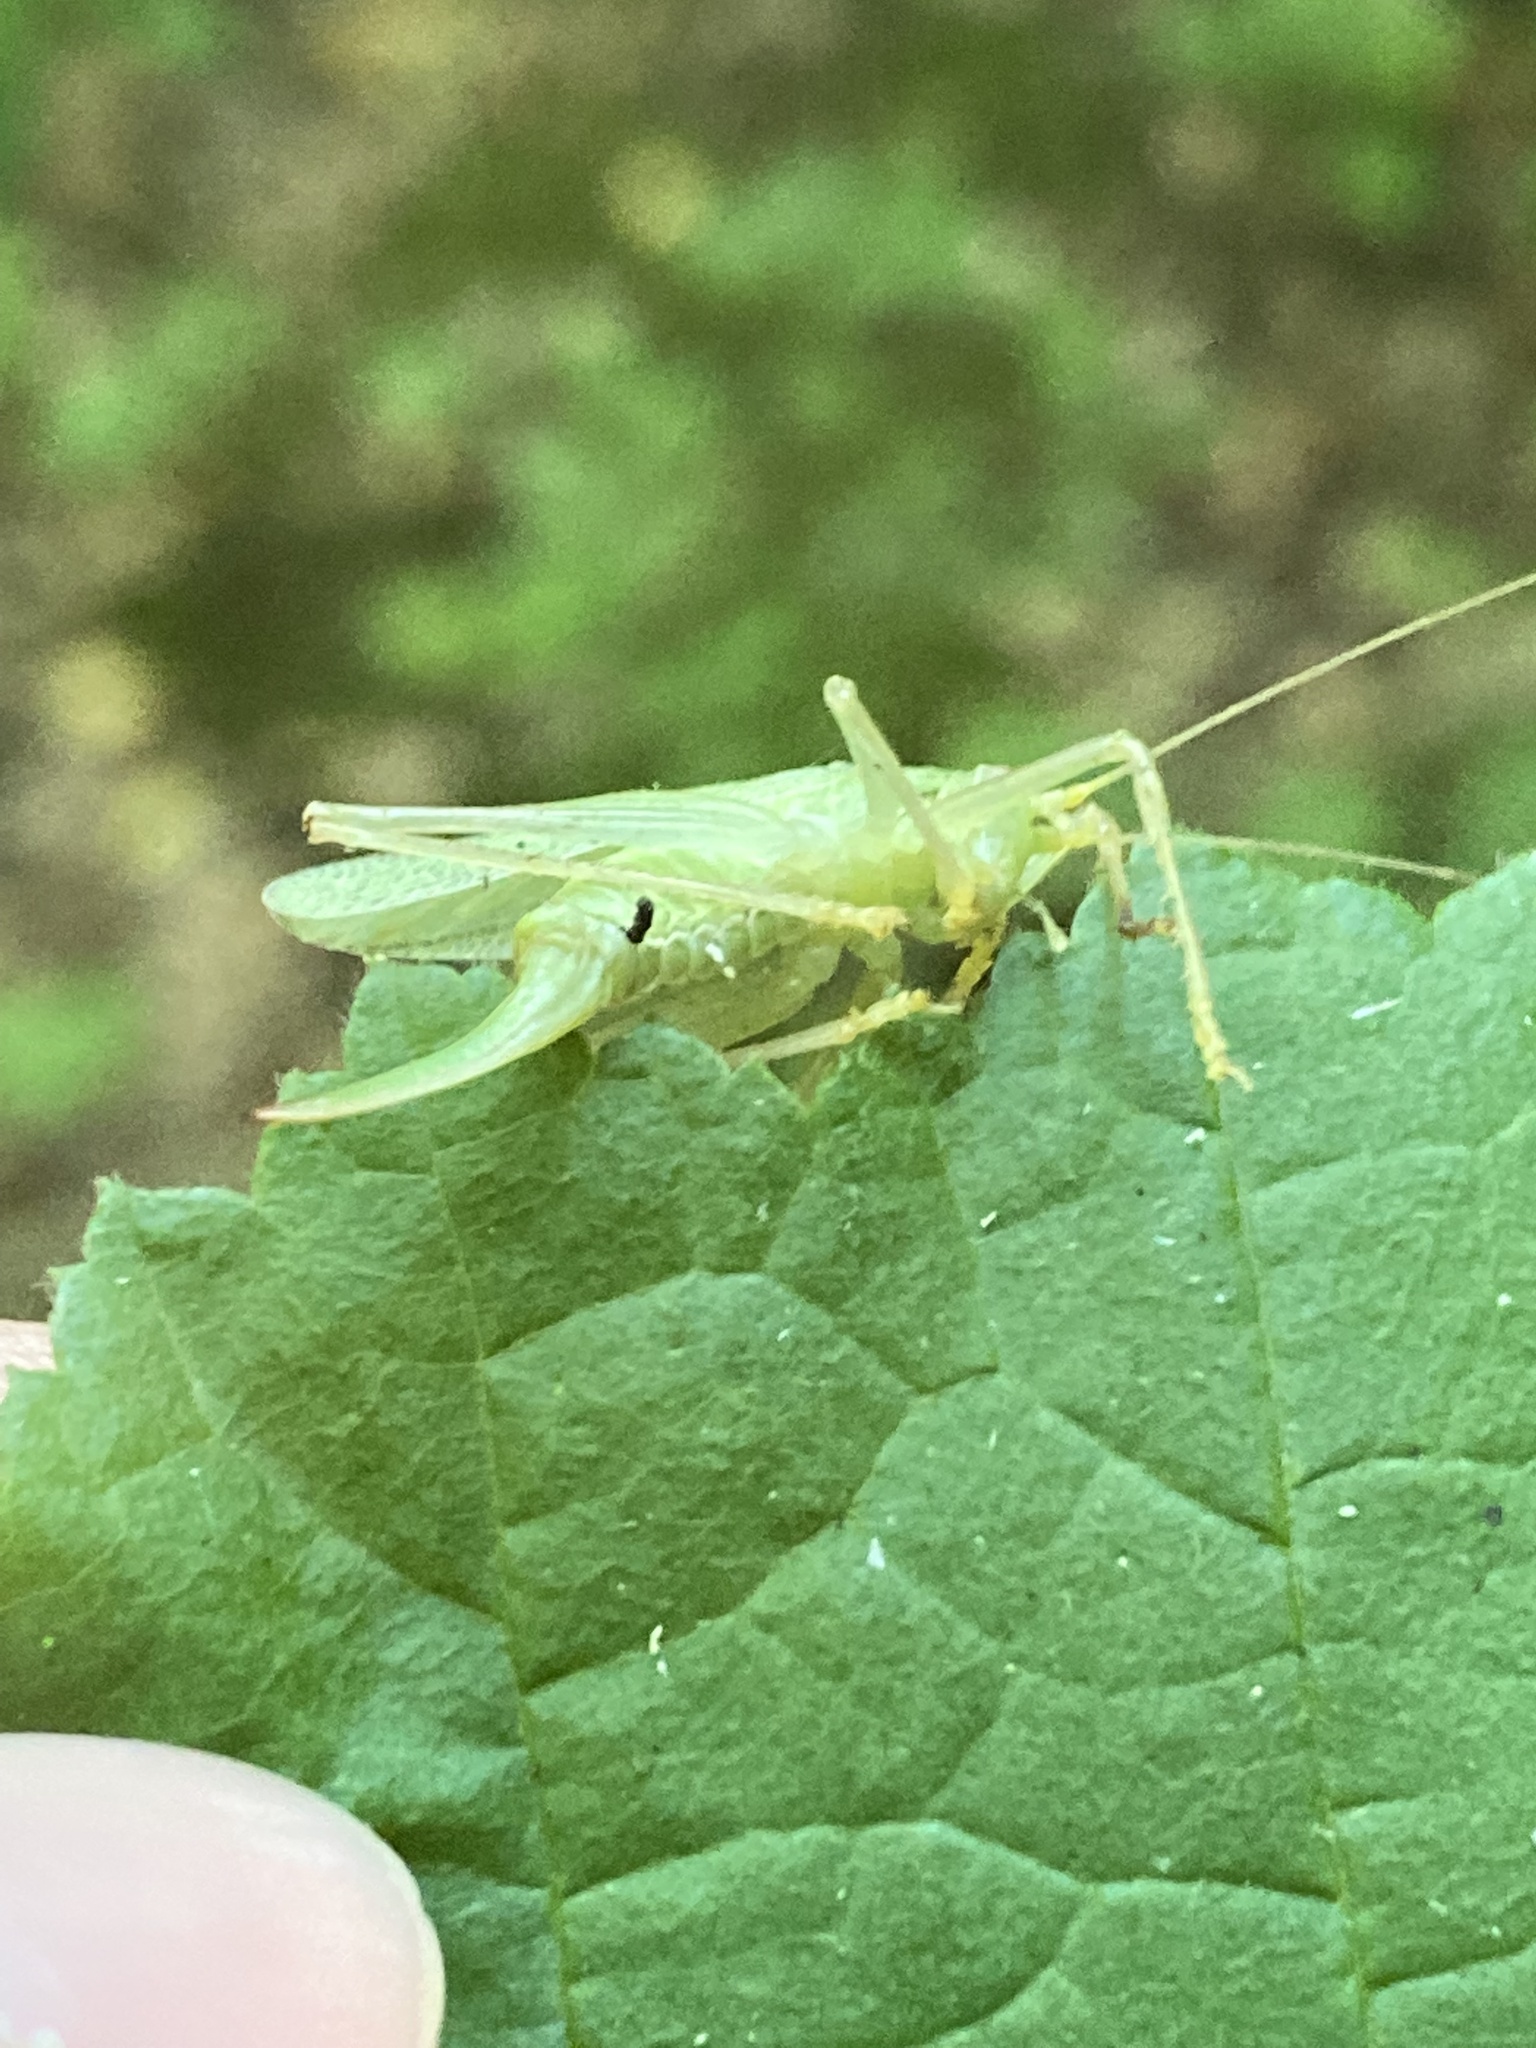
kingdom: Animalia
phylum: Arthropoda
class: Insecta
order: Orthoptera
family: Tettigoniidae
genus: Meconema
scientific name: Meconema thalassinum
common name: Oak bush-cricket
